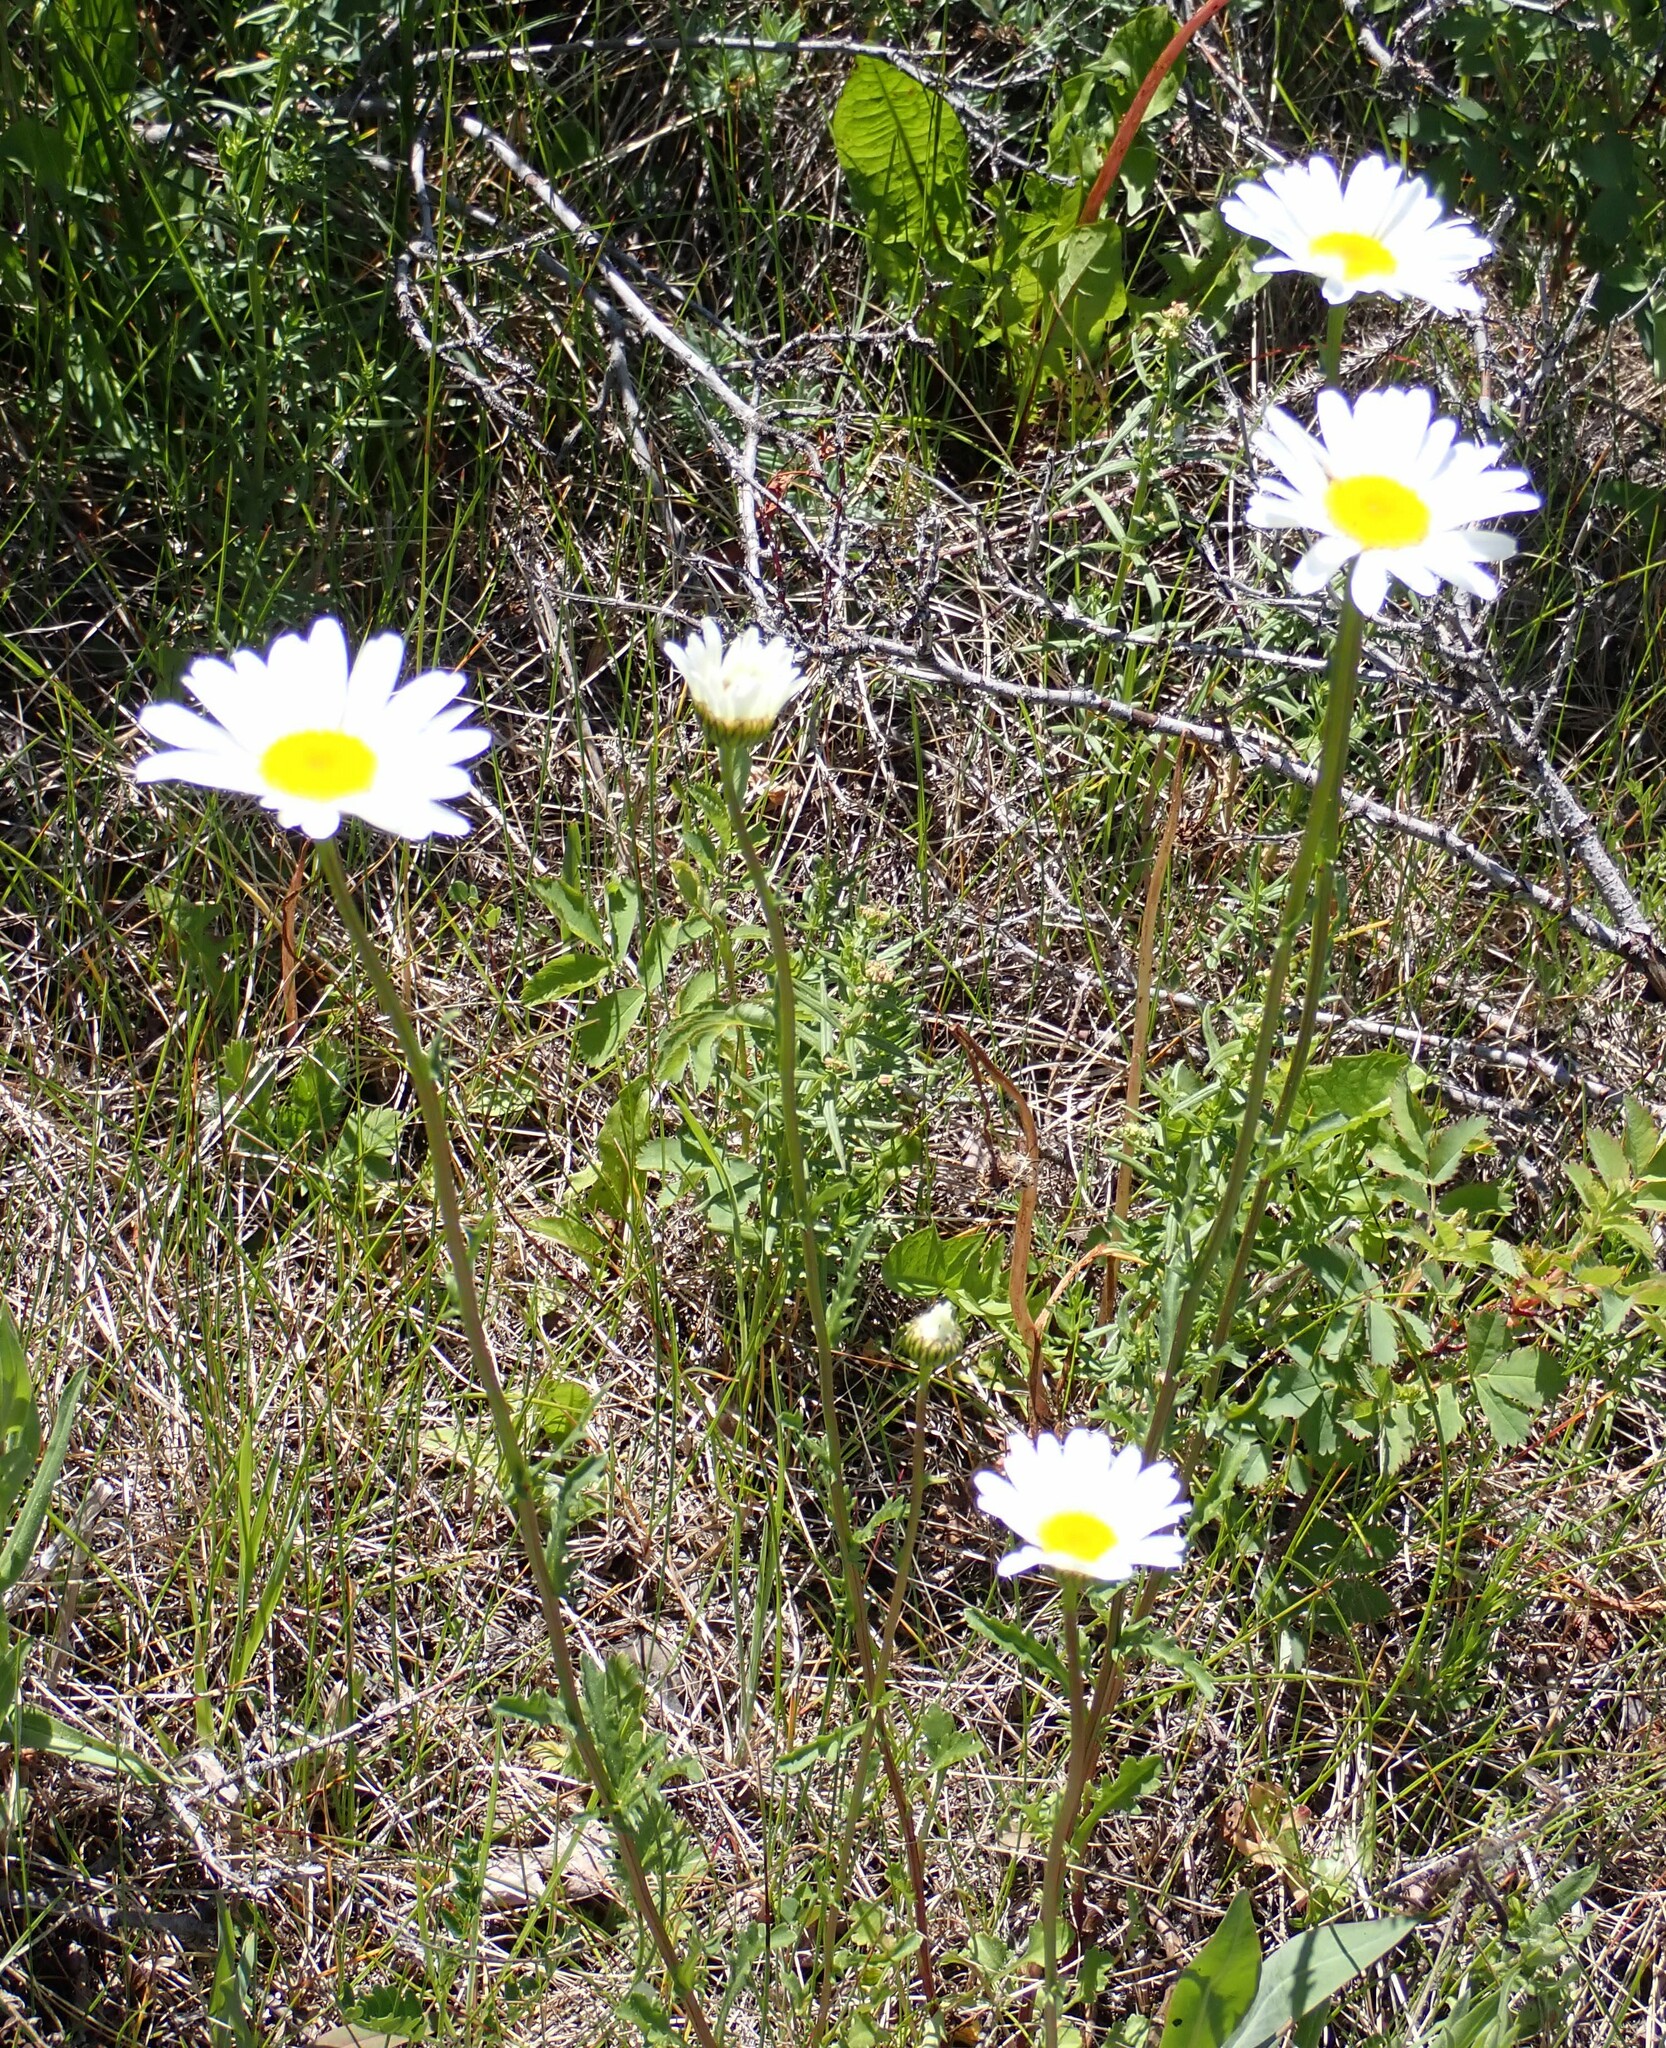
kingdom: Plantae
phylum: Tracheophyta
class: Magnoliopsida
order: Asterales
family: Asteraceae
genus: Leucanthemum
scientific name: Leucanthemum vulgare
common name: Oxeye daisy
